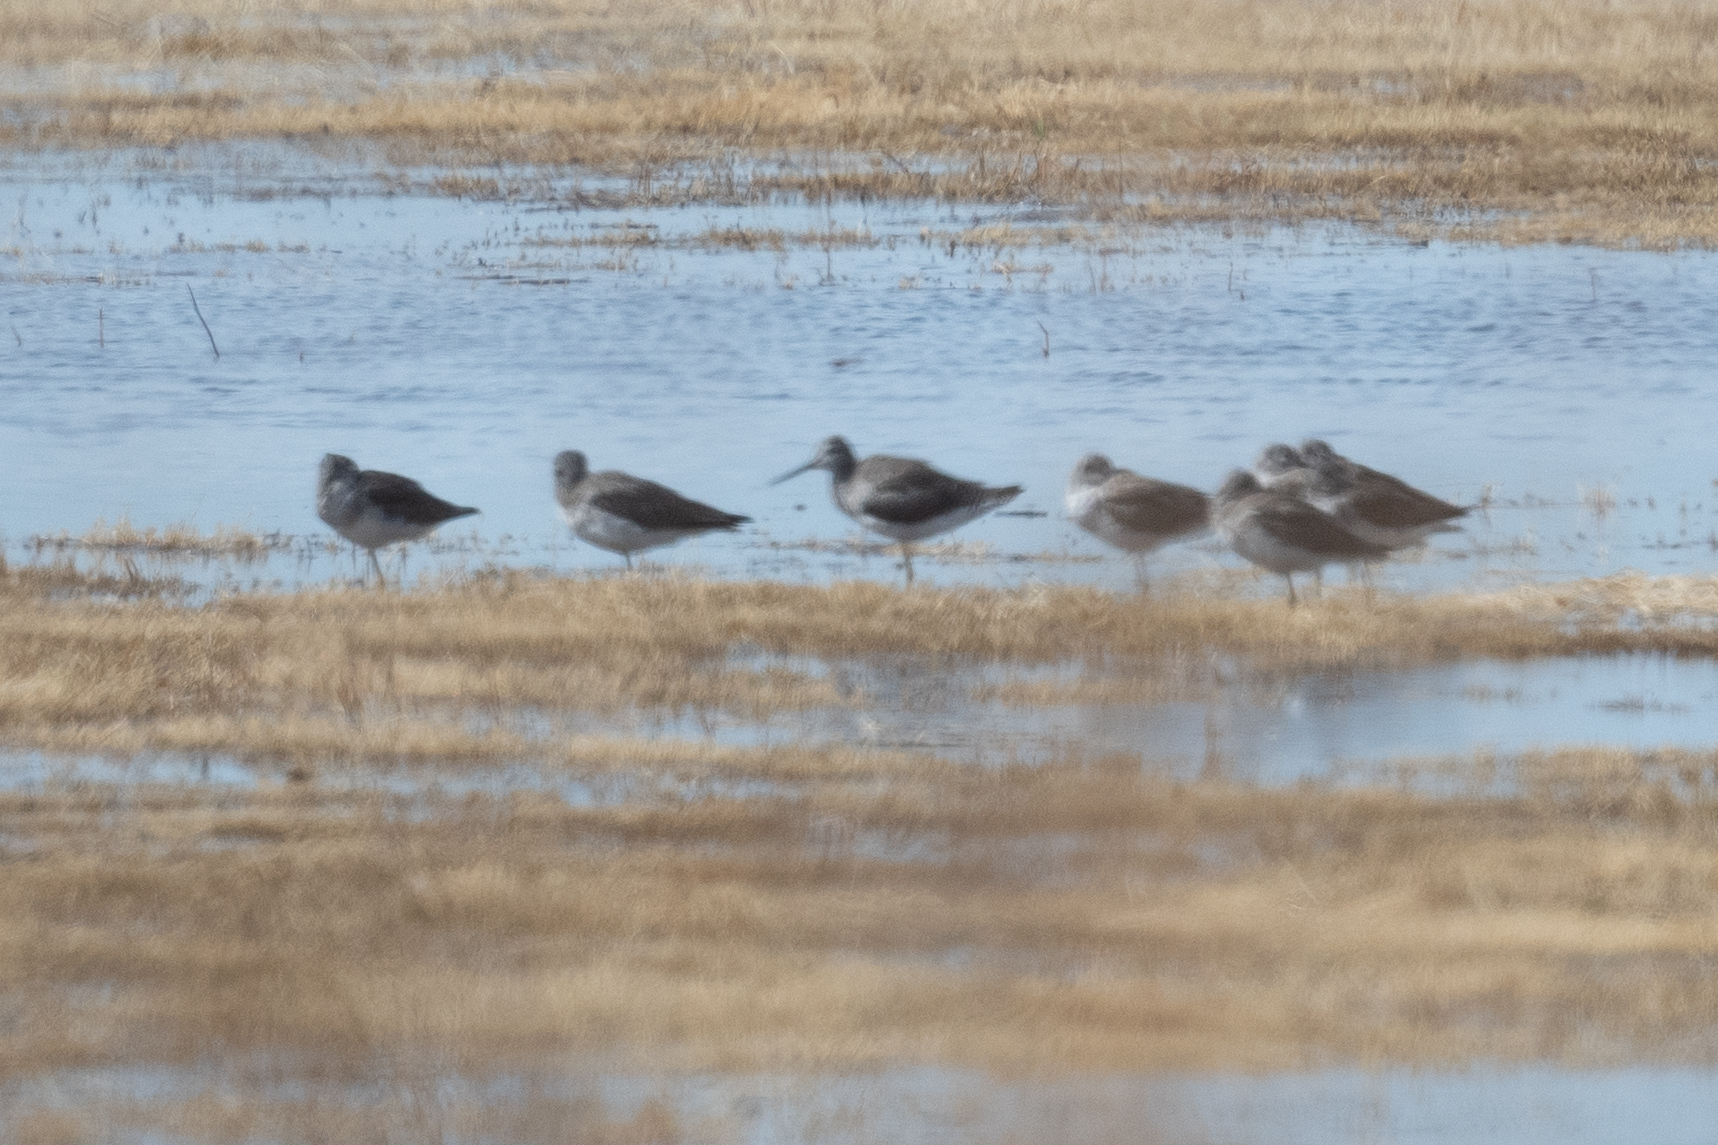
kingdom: Animalia
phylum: Chordata
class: Aves
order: Charadriiformes
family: Scolopacidae
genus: Tringa
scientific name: Tringa melanoleuca
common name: Greater yellowlegs
